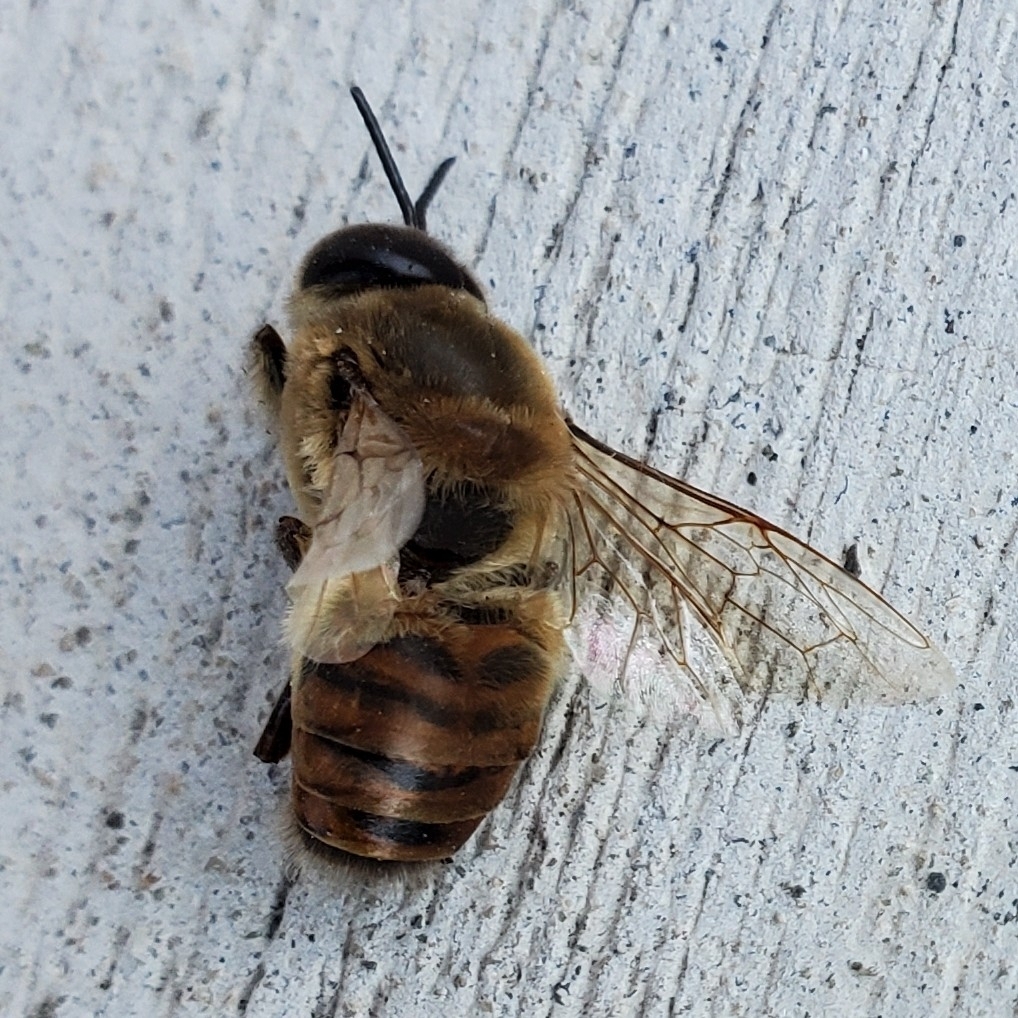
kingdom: Animalia
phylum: Arthropoda
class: Insecta
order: Hymenoptera
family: Apidae
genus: Apis
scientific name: Apis mellifera
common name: Honey bee
